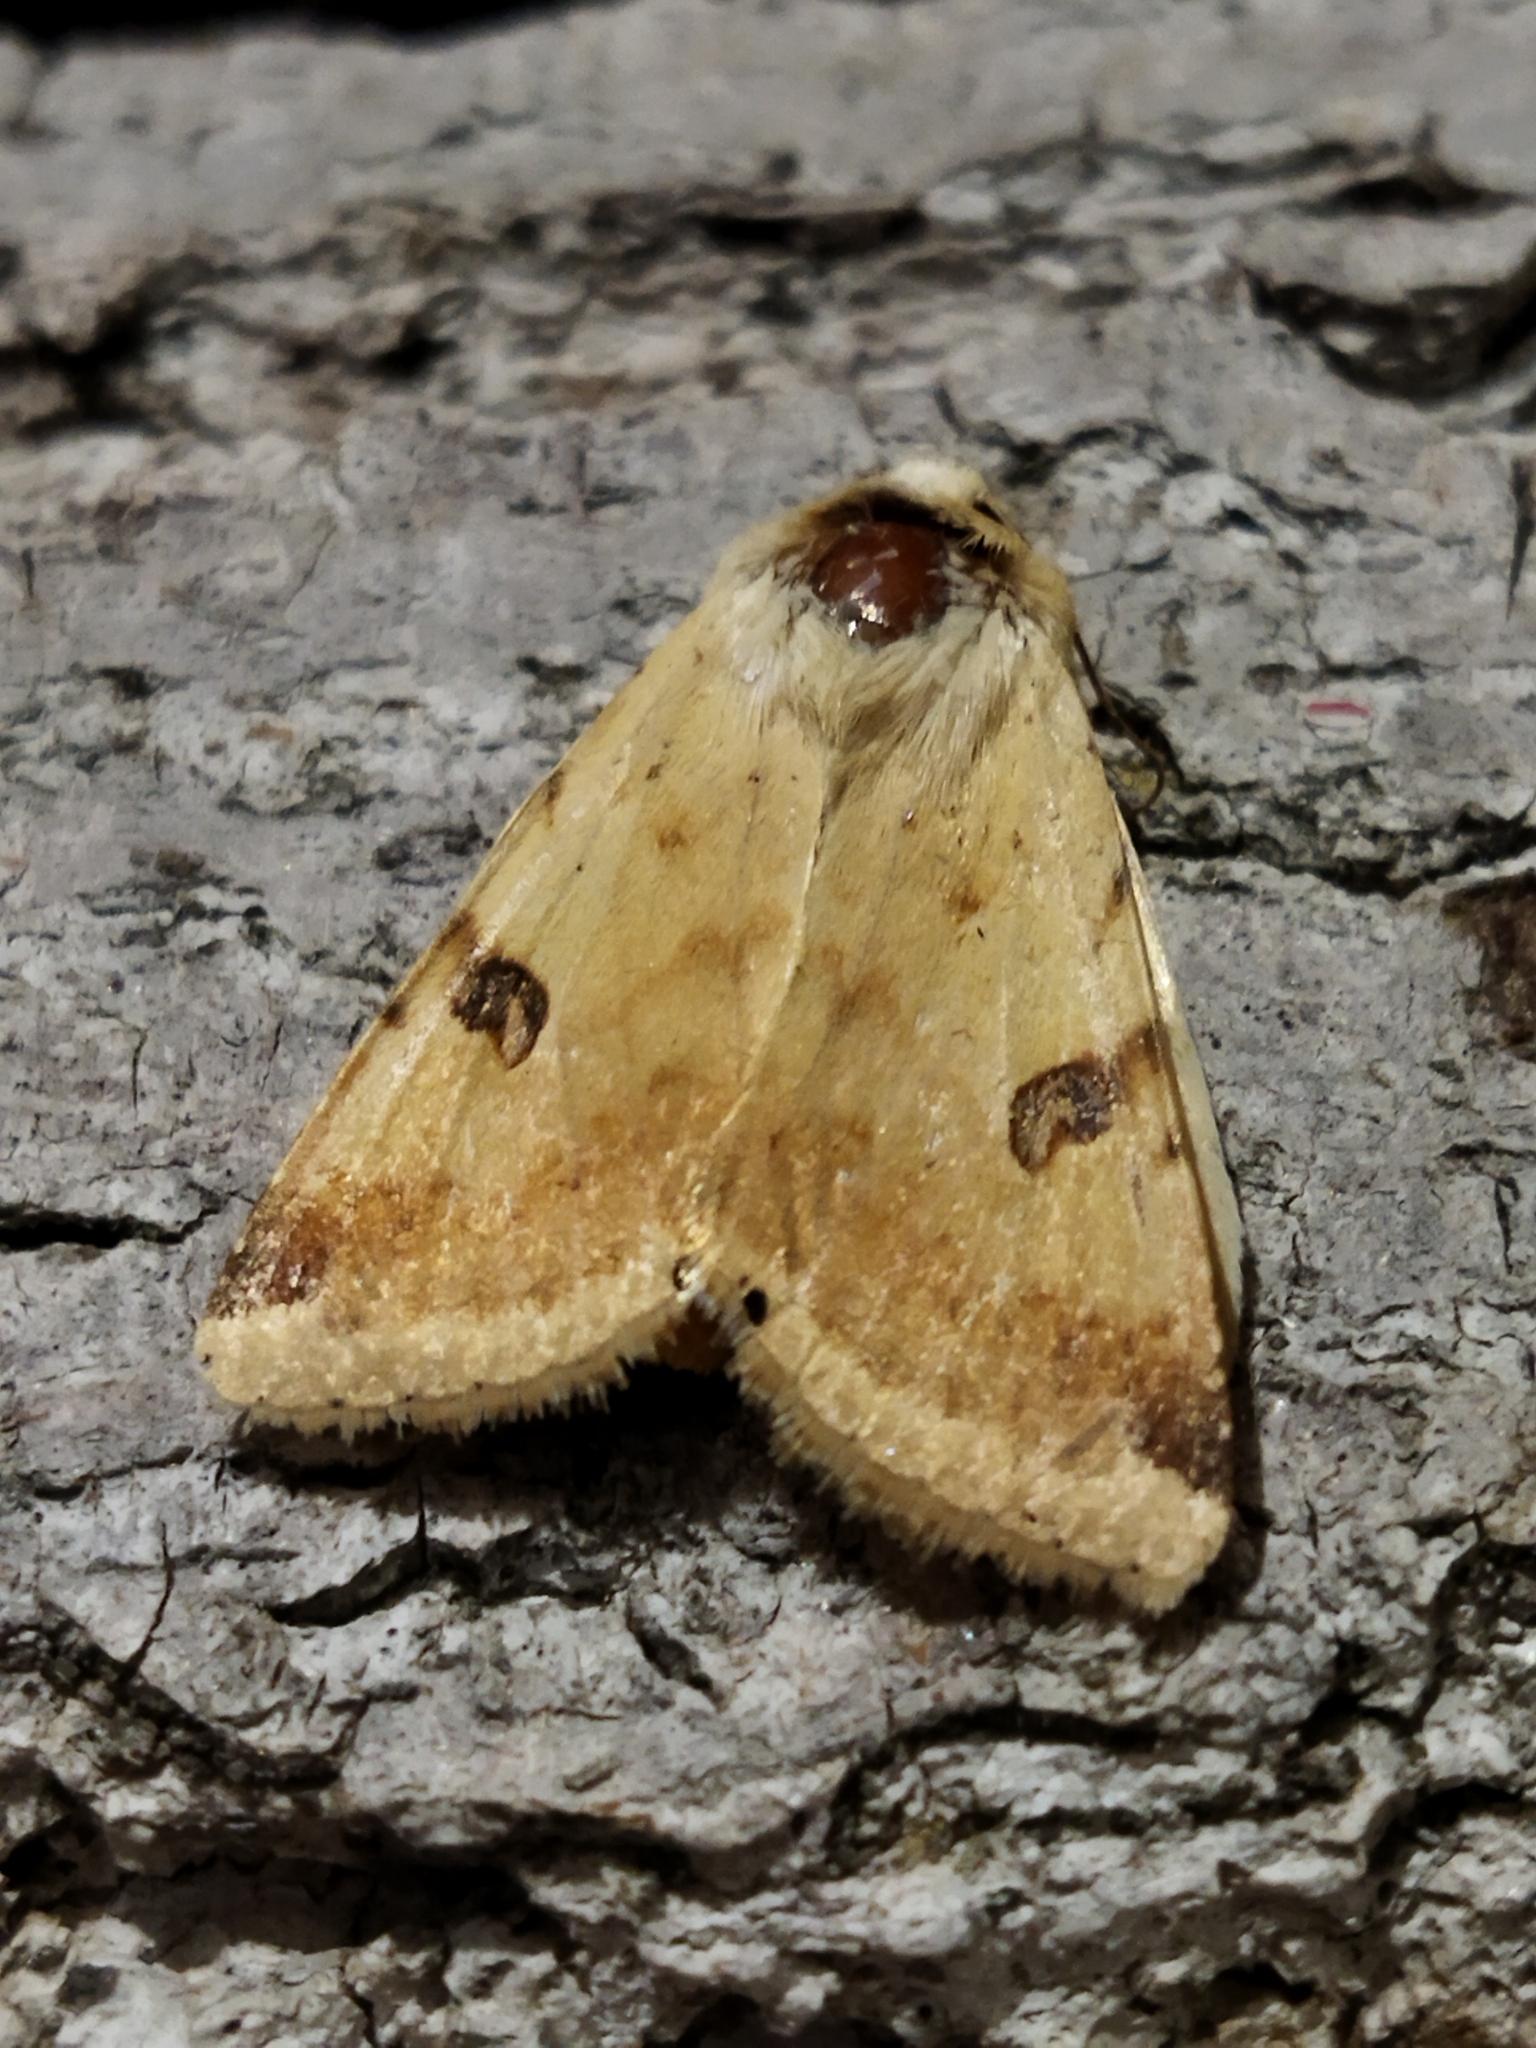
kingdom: Animalia
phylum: Arthropoda
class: Insecta
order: Lepidoptera
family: Noctuidae
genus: Heliothis
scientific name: Heliothis peltigera
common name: Bordered straw
